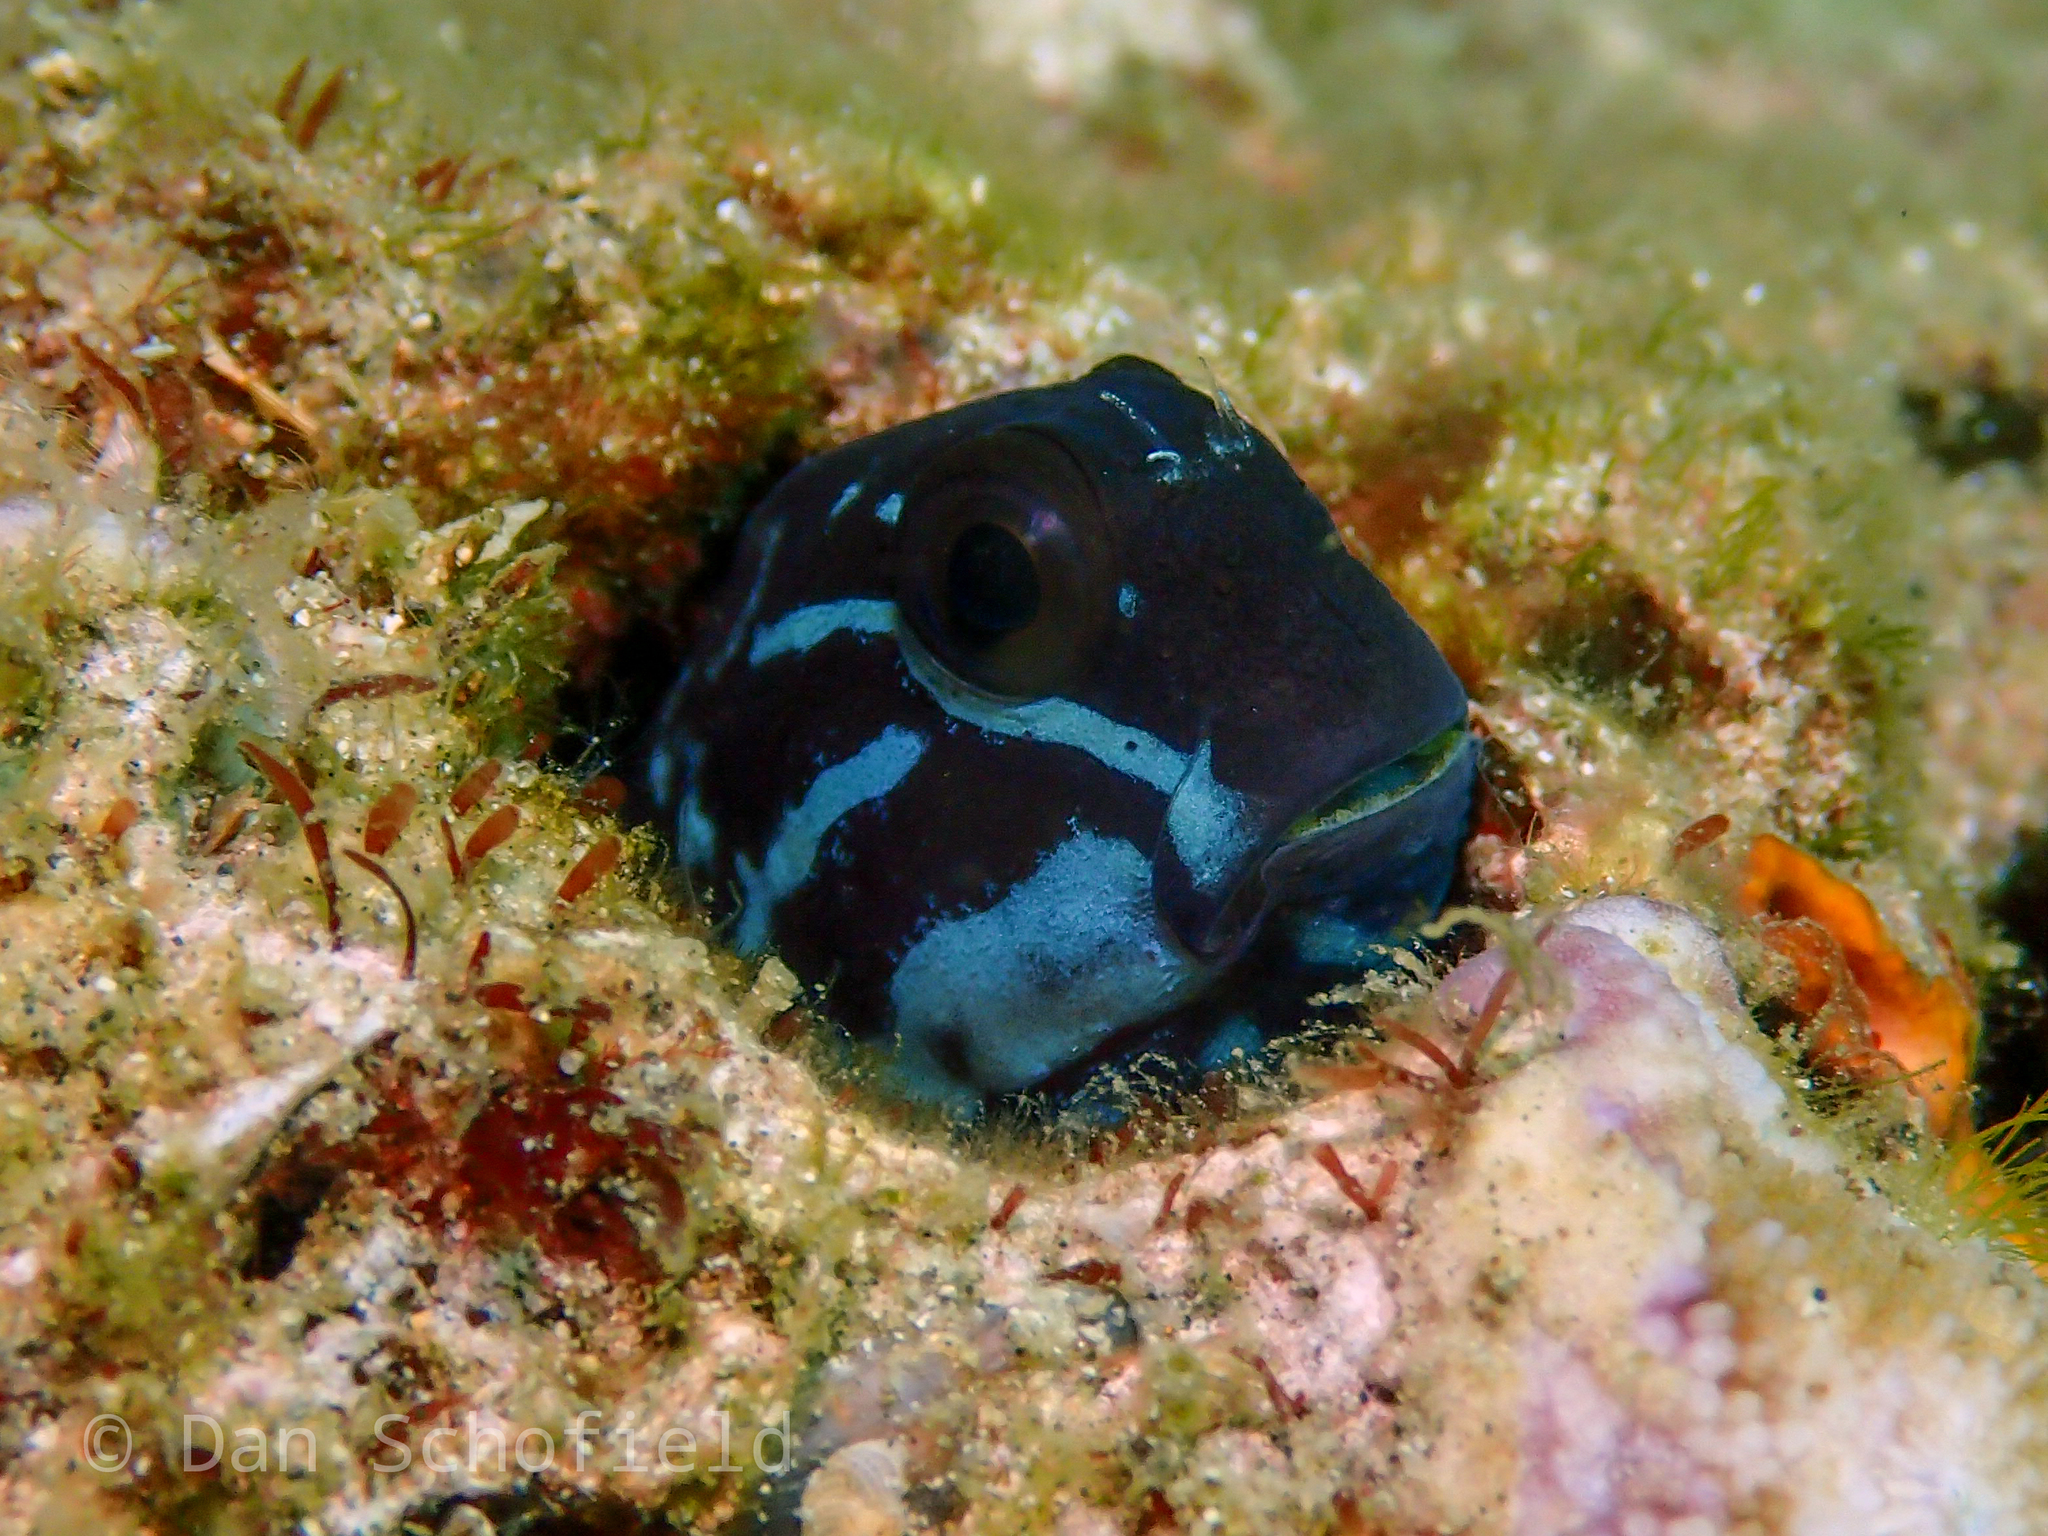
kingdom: Animalia
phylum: Chordata
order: Perciformes
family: Blenniidae
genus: Ecsenius
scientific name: Ecsenius namiyei
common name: Black comb-tooth
